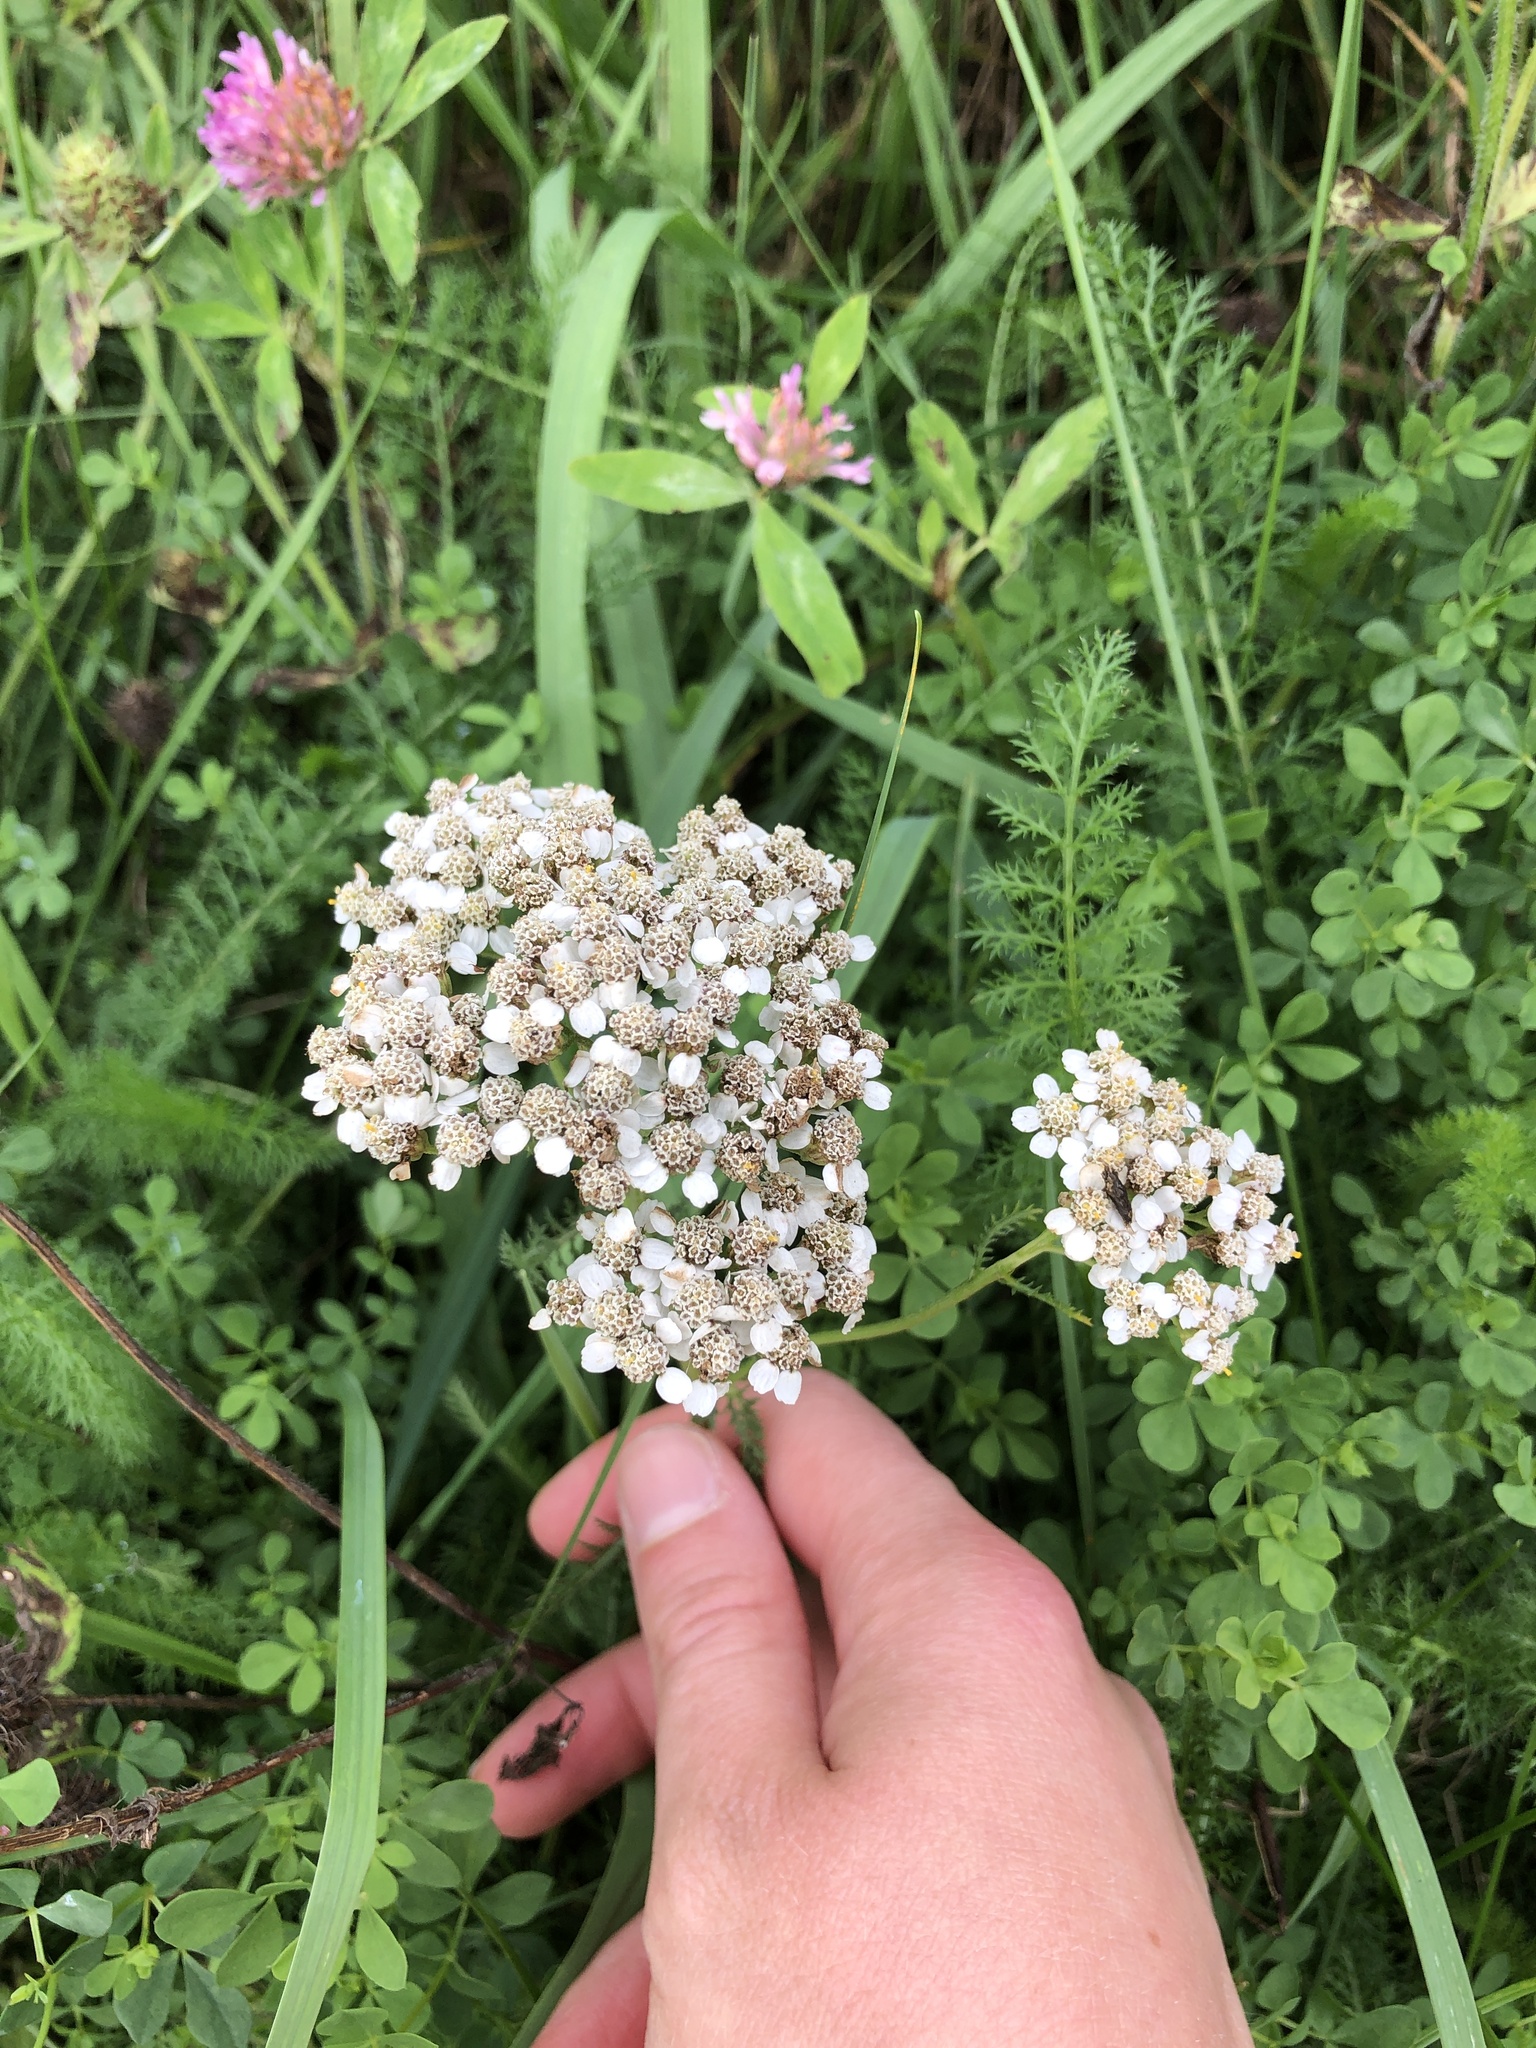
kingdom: Plantae
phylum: Tracheophyta
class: Magnoliopsida
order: Asterales
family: Asteraceae
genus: Achillea
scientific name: Achillea millefolium
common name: Yarrow
